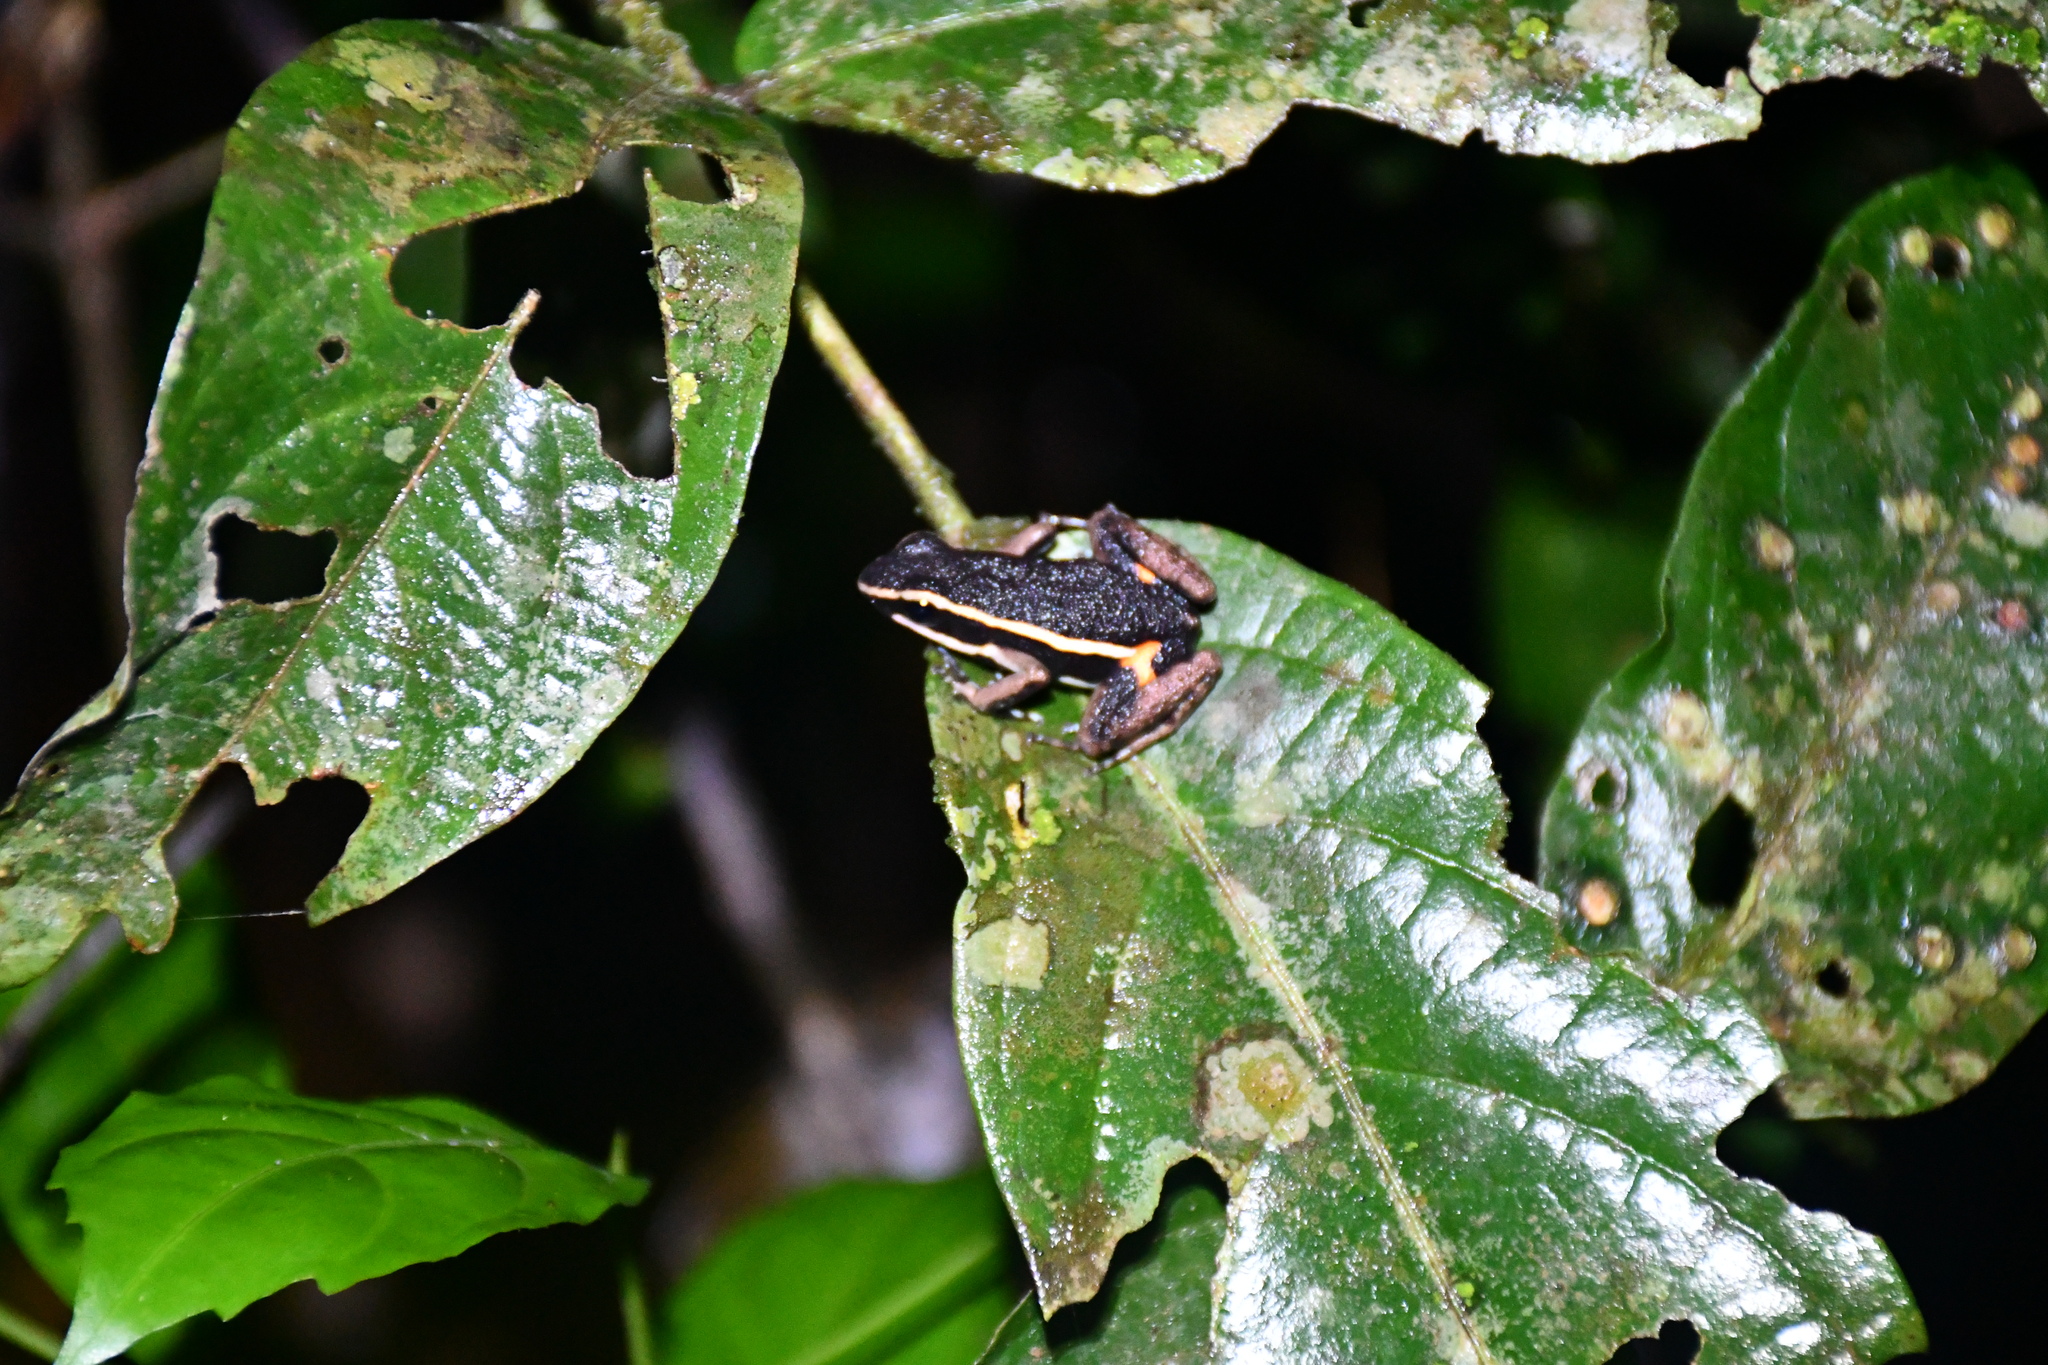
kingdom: Animalia
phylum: Chordata
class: Amphibia
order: Anura
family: Dendrobatidae
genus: Ameerega
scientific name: Ameerega picta
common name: Spot-legged poison frog
